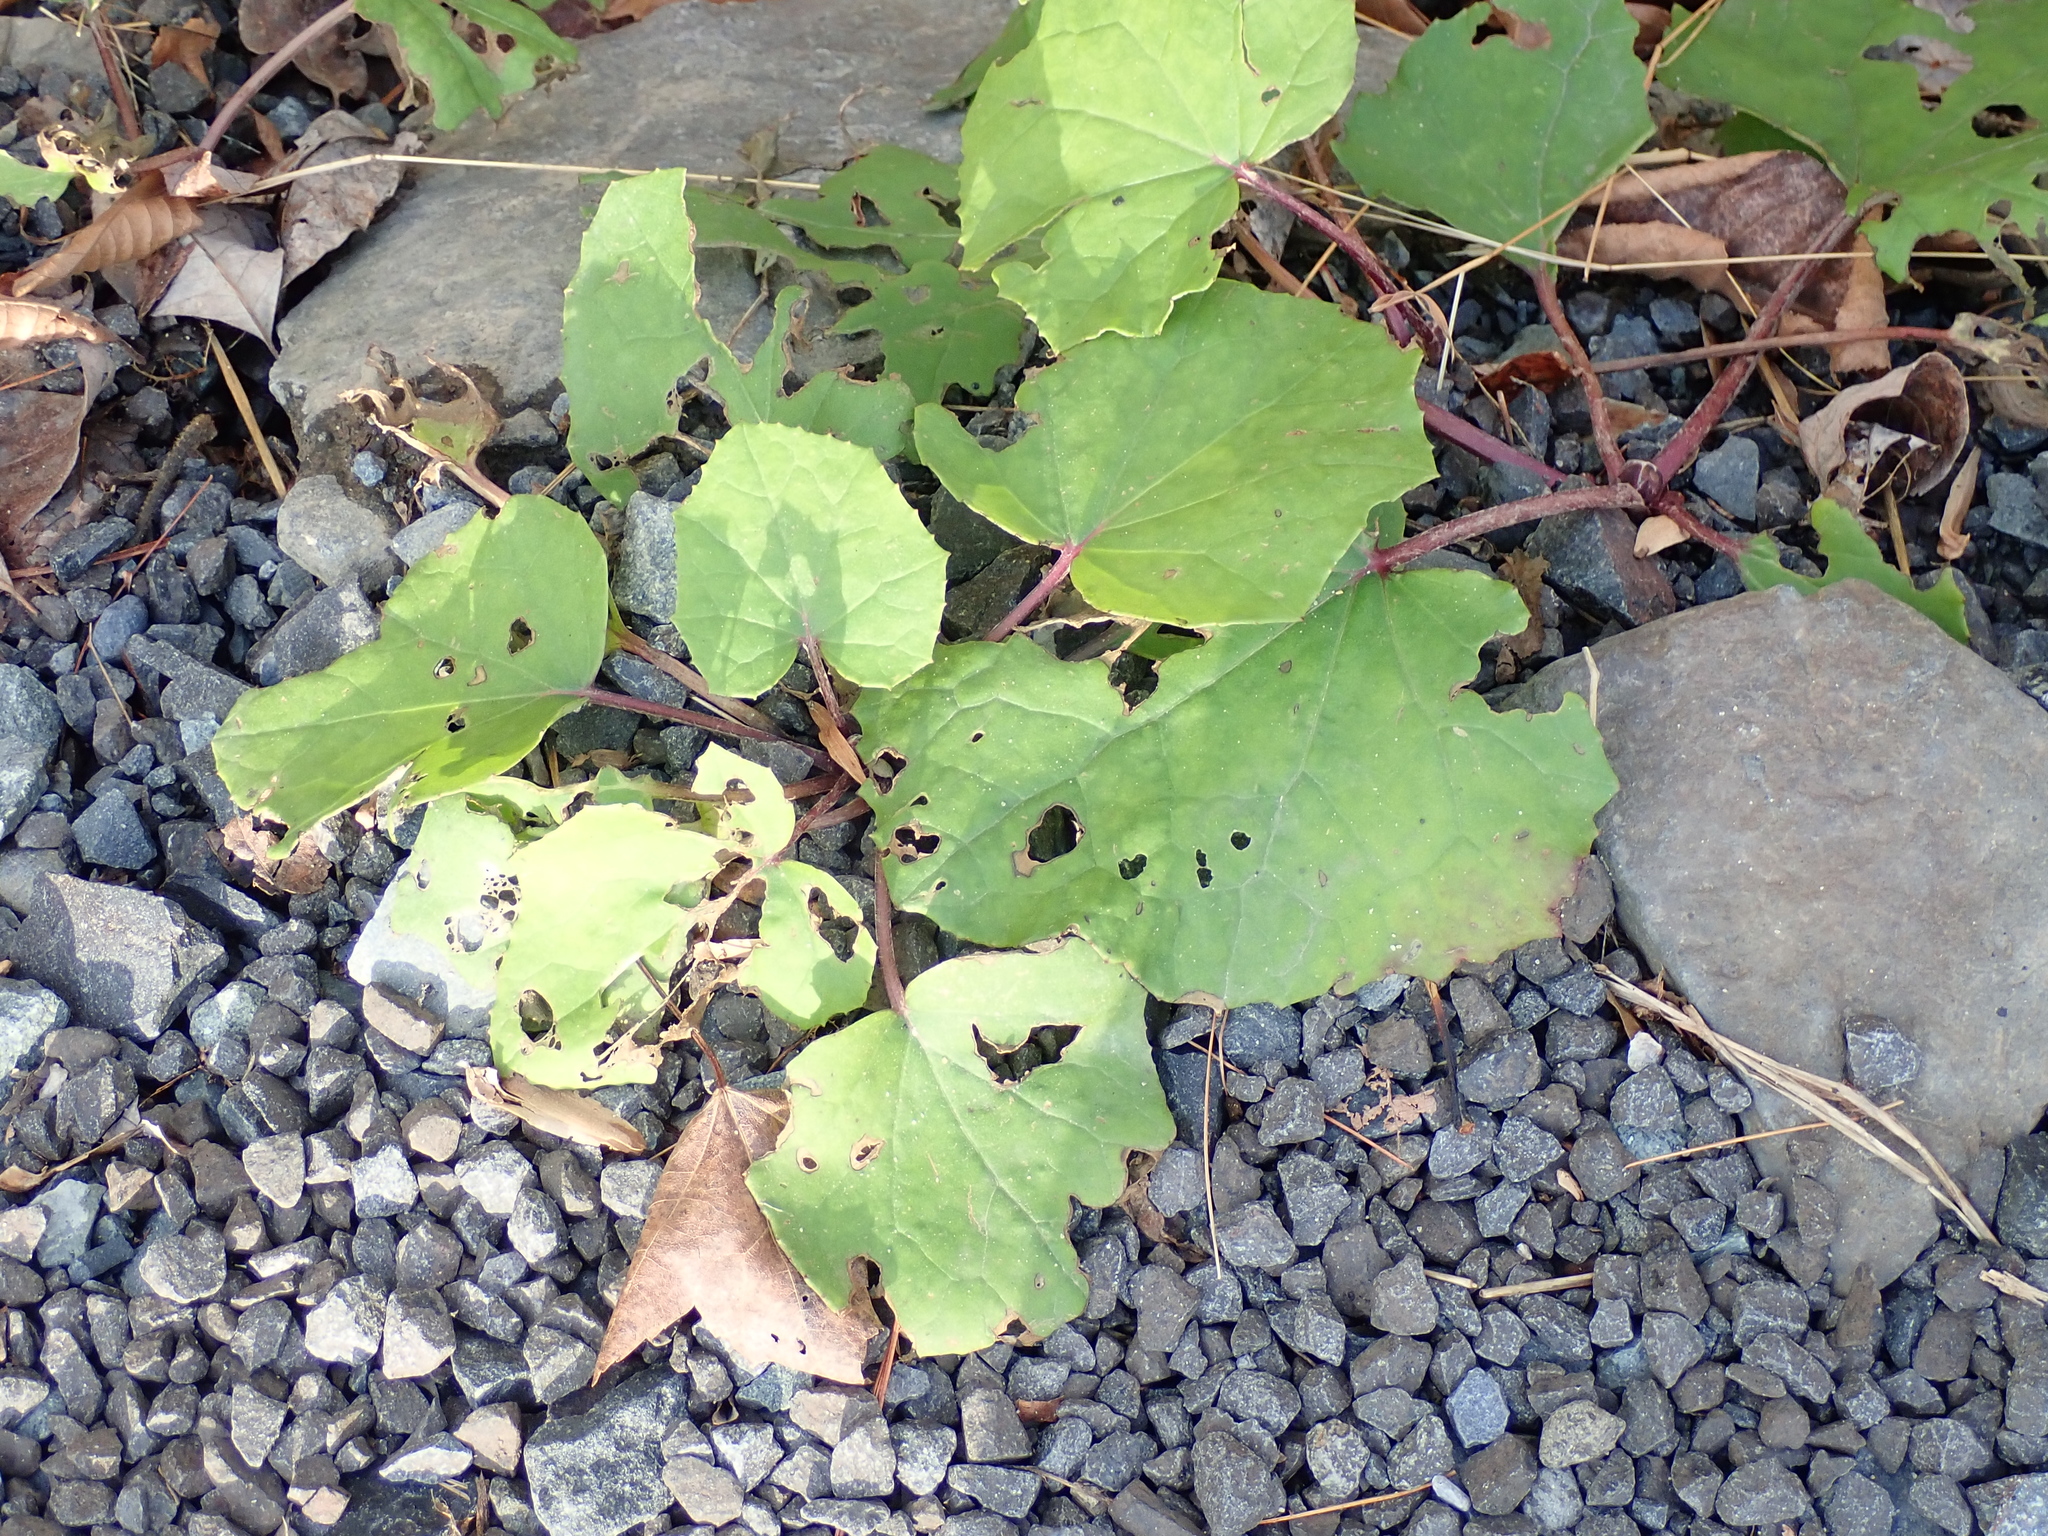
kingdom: Plantae
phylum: Tracheophyta
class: Magnoliopsida
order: Asterales
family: Asteraceae
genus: Tussilago
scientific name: Tussilago farfara
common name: Coltsfoot
